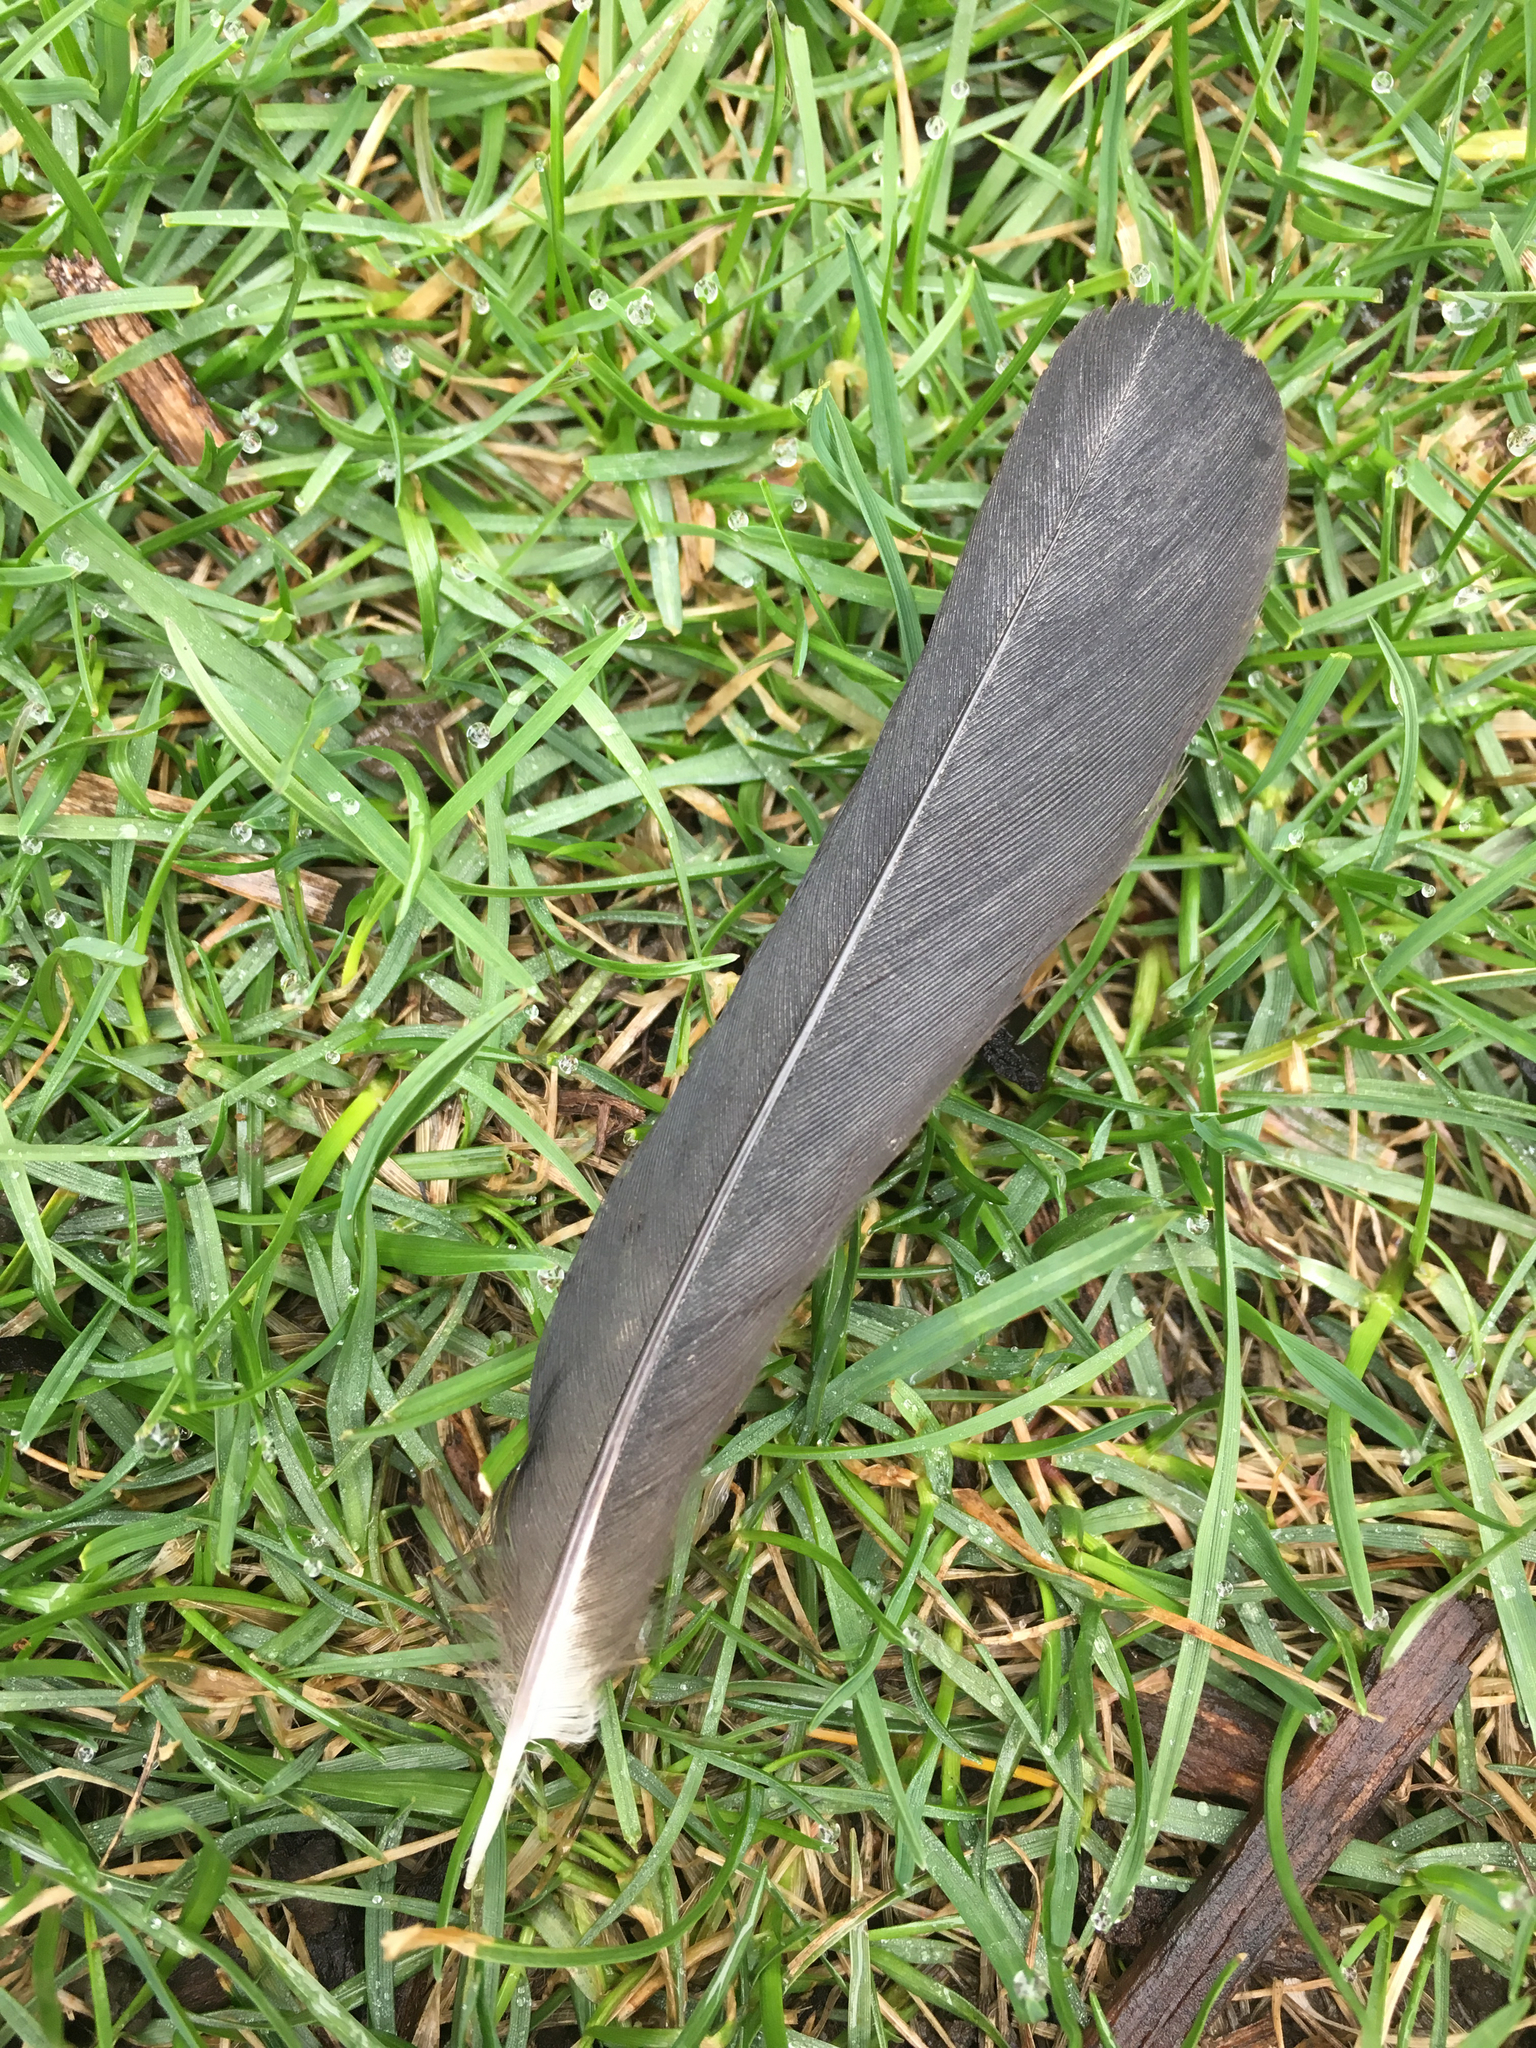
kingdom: Animalia
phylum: Chordata
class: Aves
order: Passeriformes
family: Icteridae
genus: Agelaius
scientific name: Agelaius phoeniceus
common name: Red-winged blackbird
